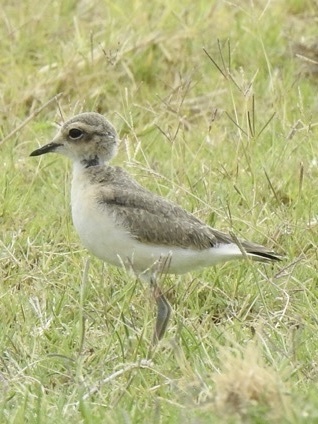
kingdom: Animalia
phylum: Chordata
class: Aves
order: Charadriiformes
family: Charadriidae
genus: Anarhynchus
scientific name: Anarhynchus
